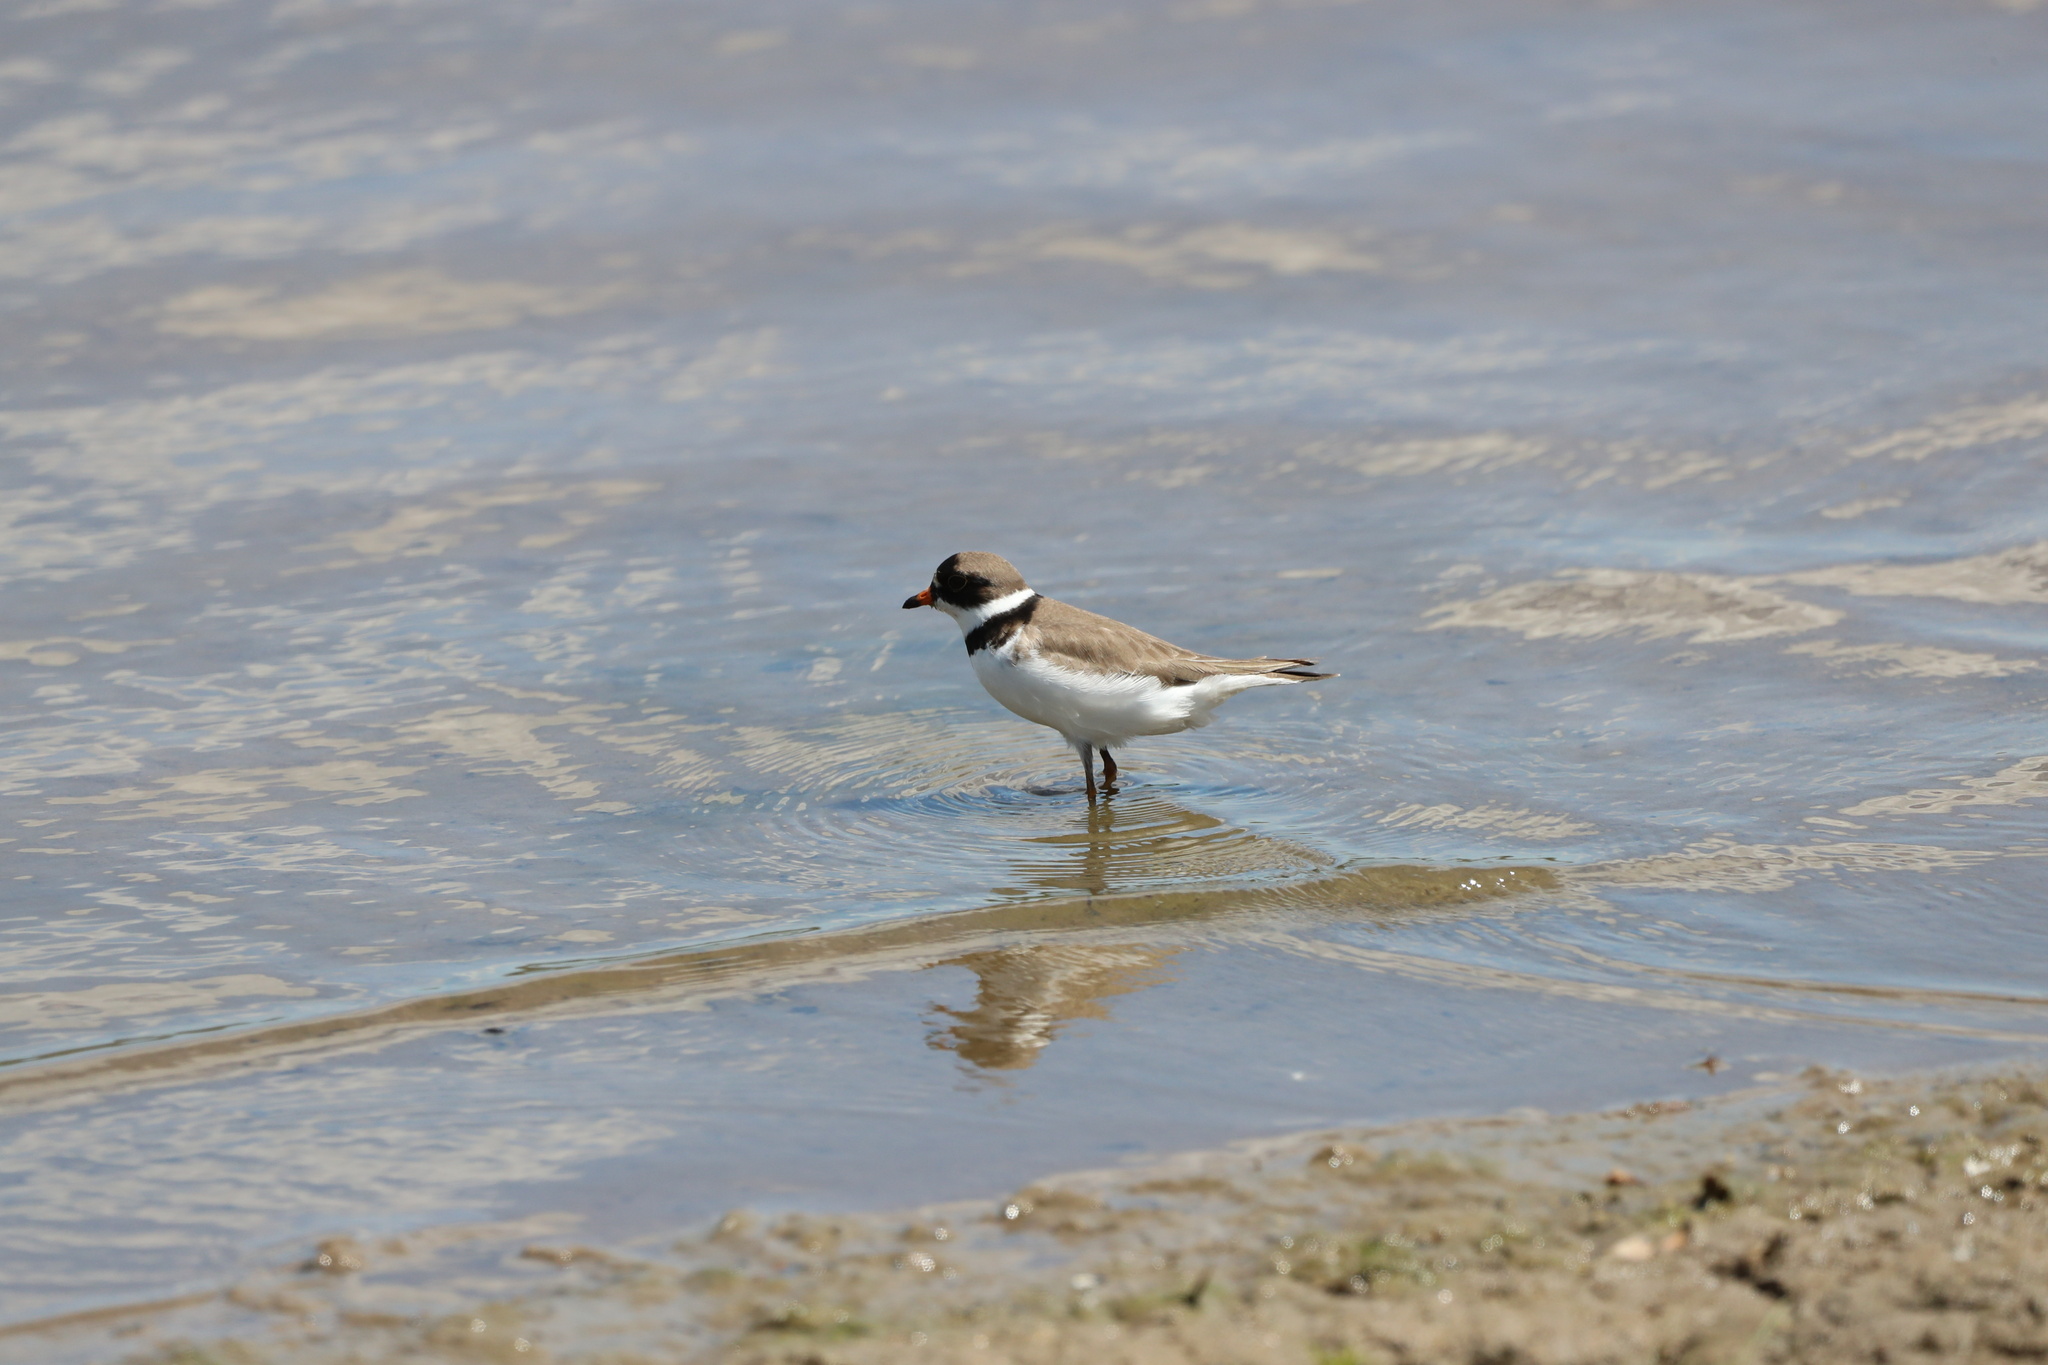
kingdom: Animalia
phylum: Chordata
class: Aves
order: Charadriiformes
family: Charadriidae
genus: Charadrius
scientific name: Charadrius semipalmatus
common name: Semipalmated plover
